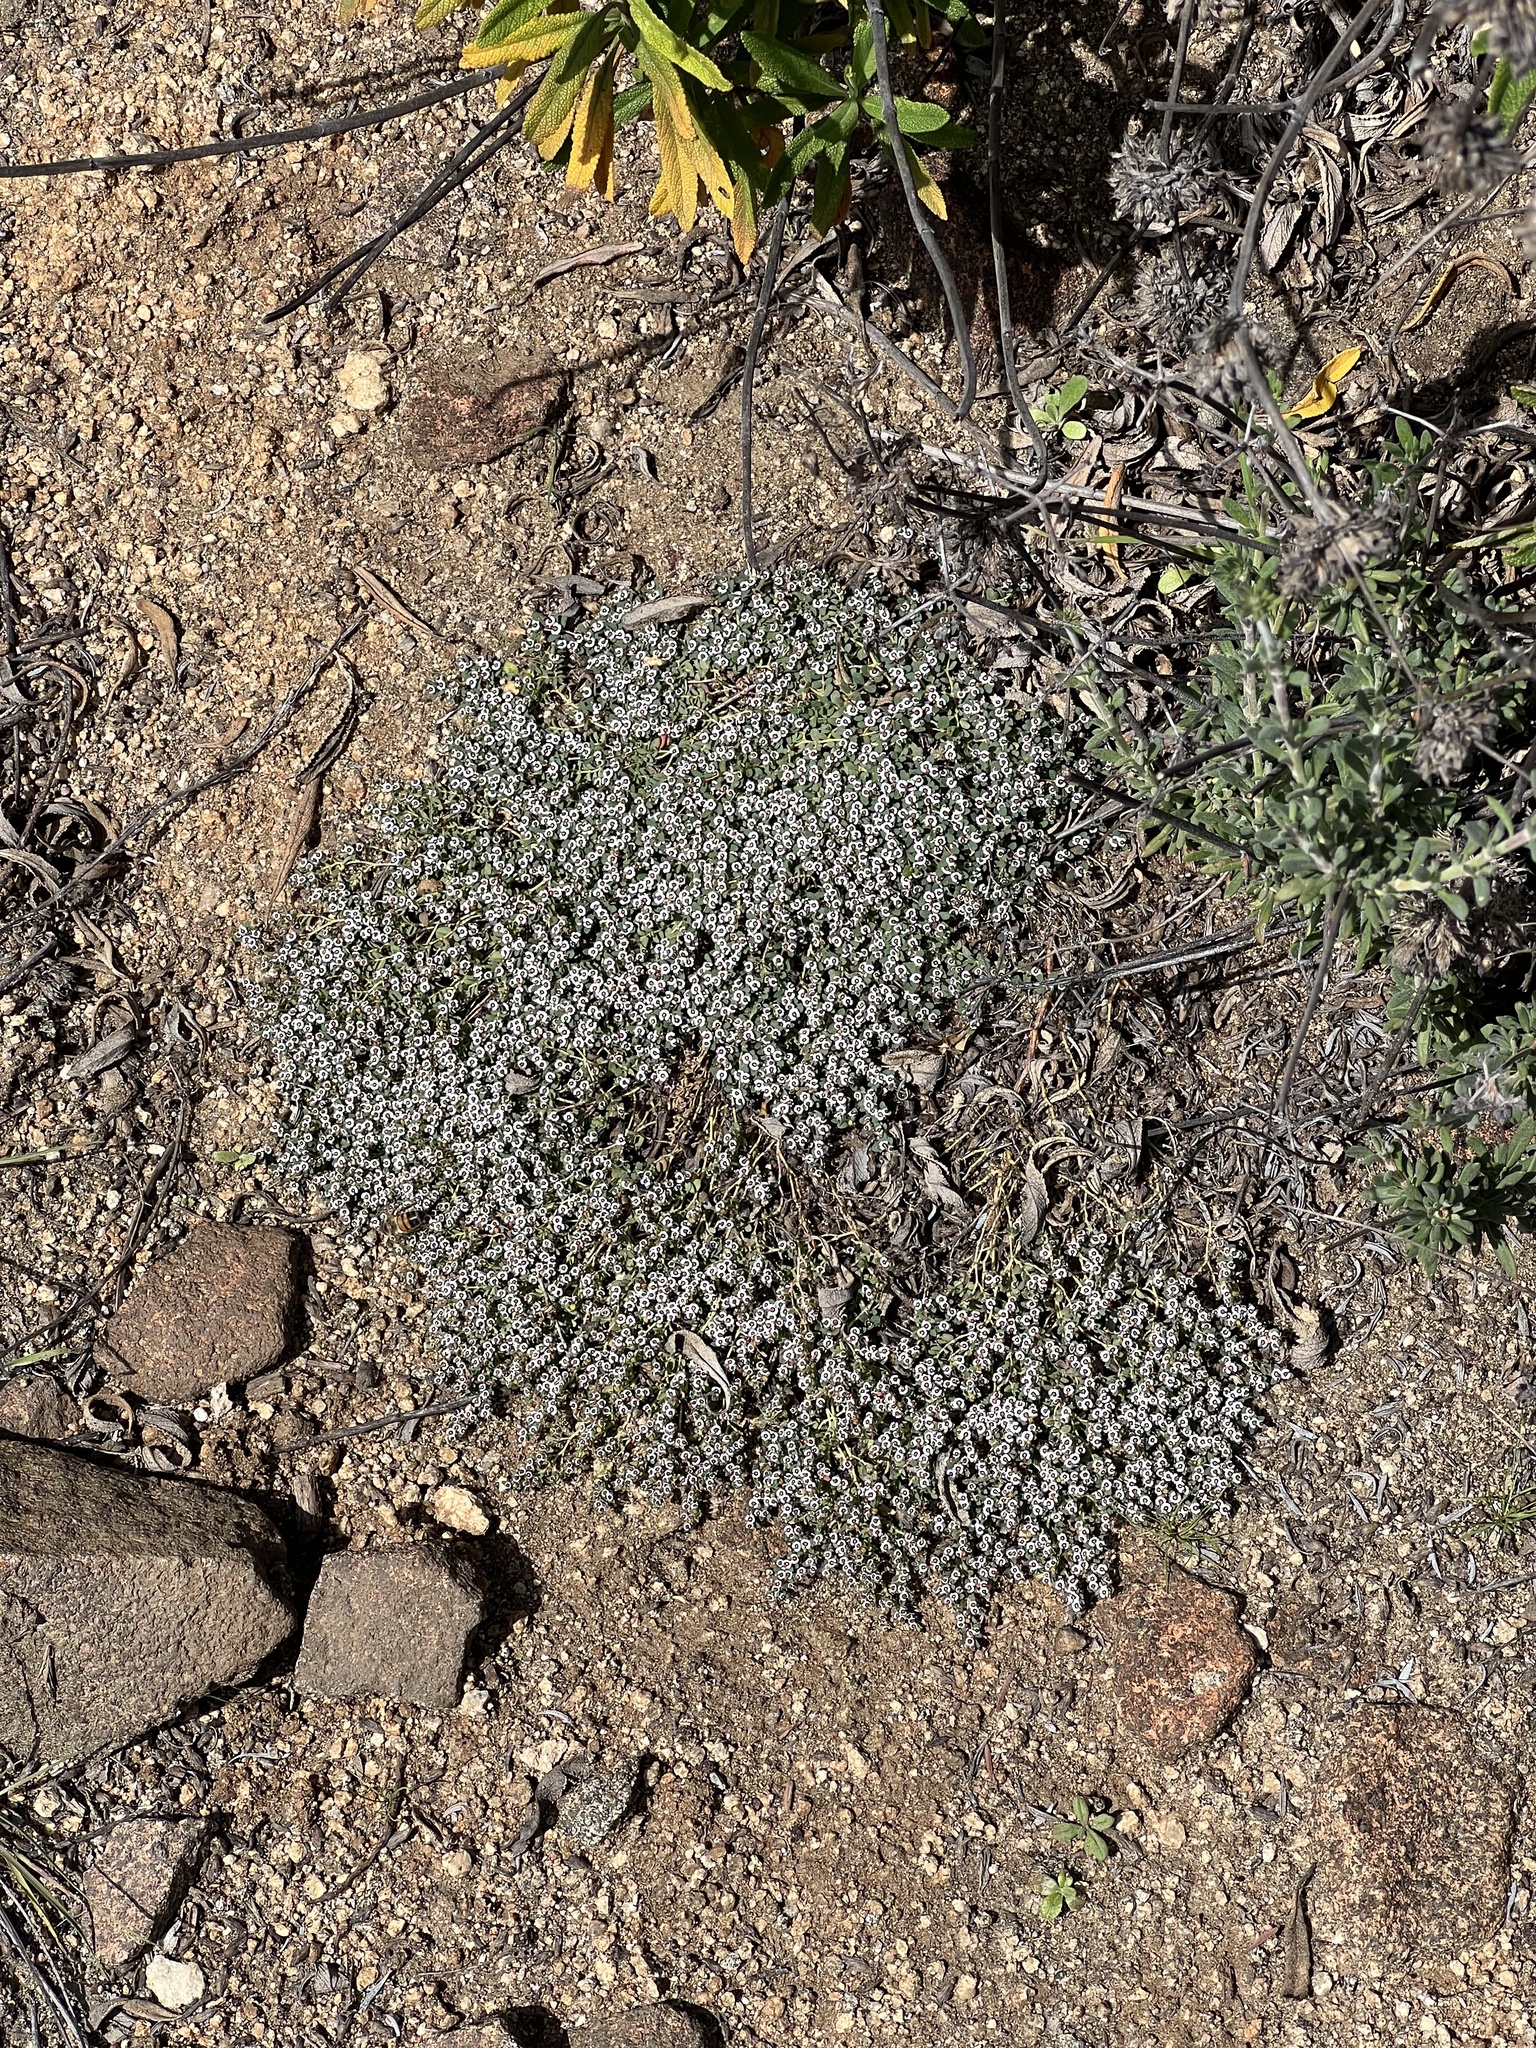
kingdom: Plantae
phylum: Tracheophyta
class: Magnoliopsida
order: Malpighiales
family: Euphorbiaceae
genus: Euphorbia
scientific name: Euphorbia polycarpa
